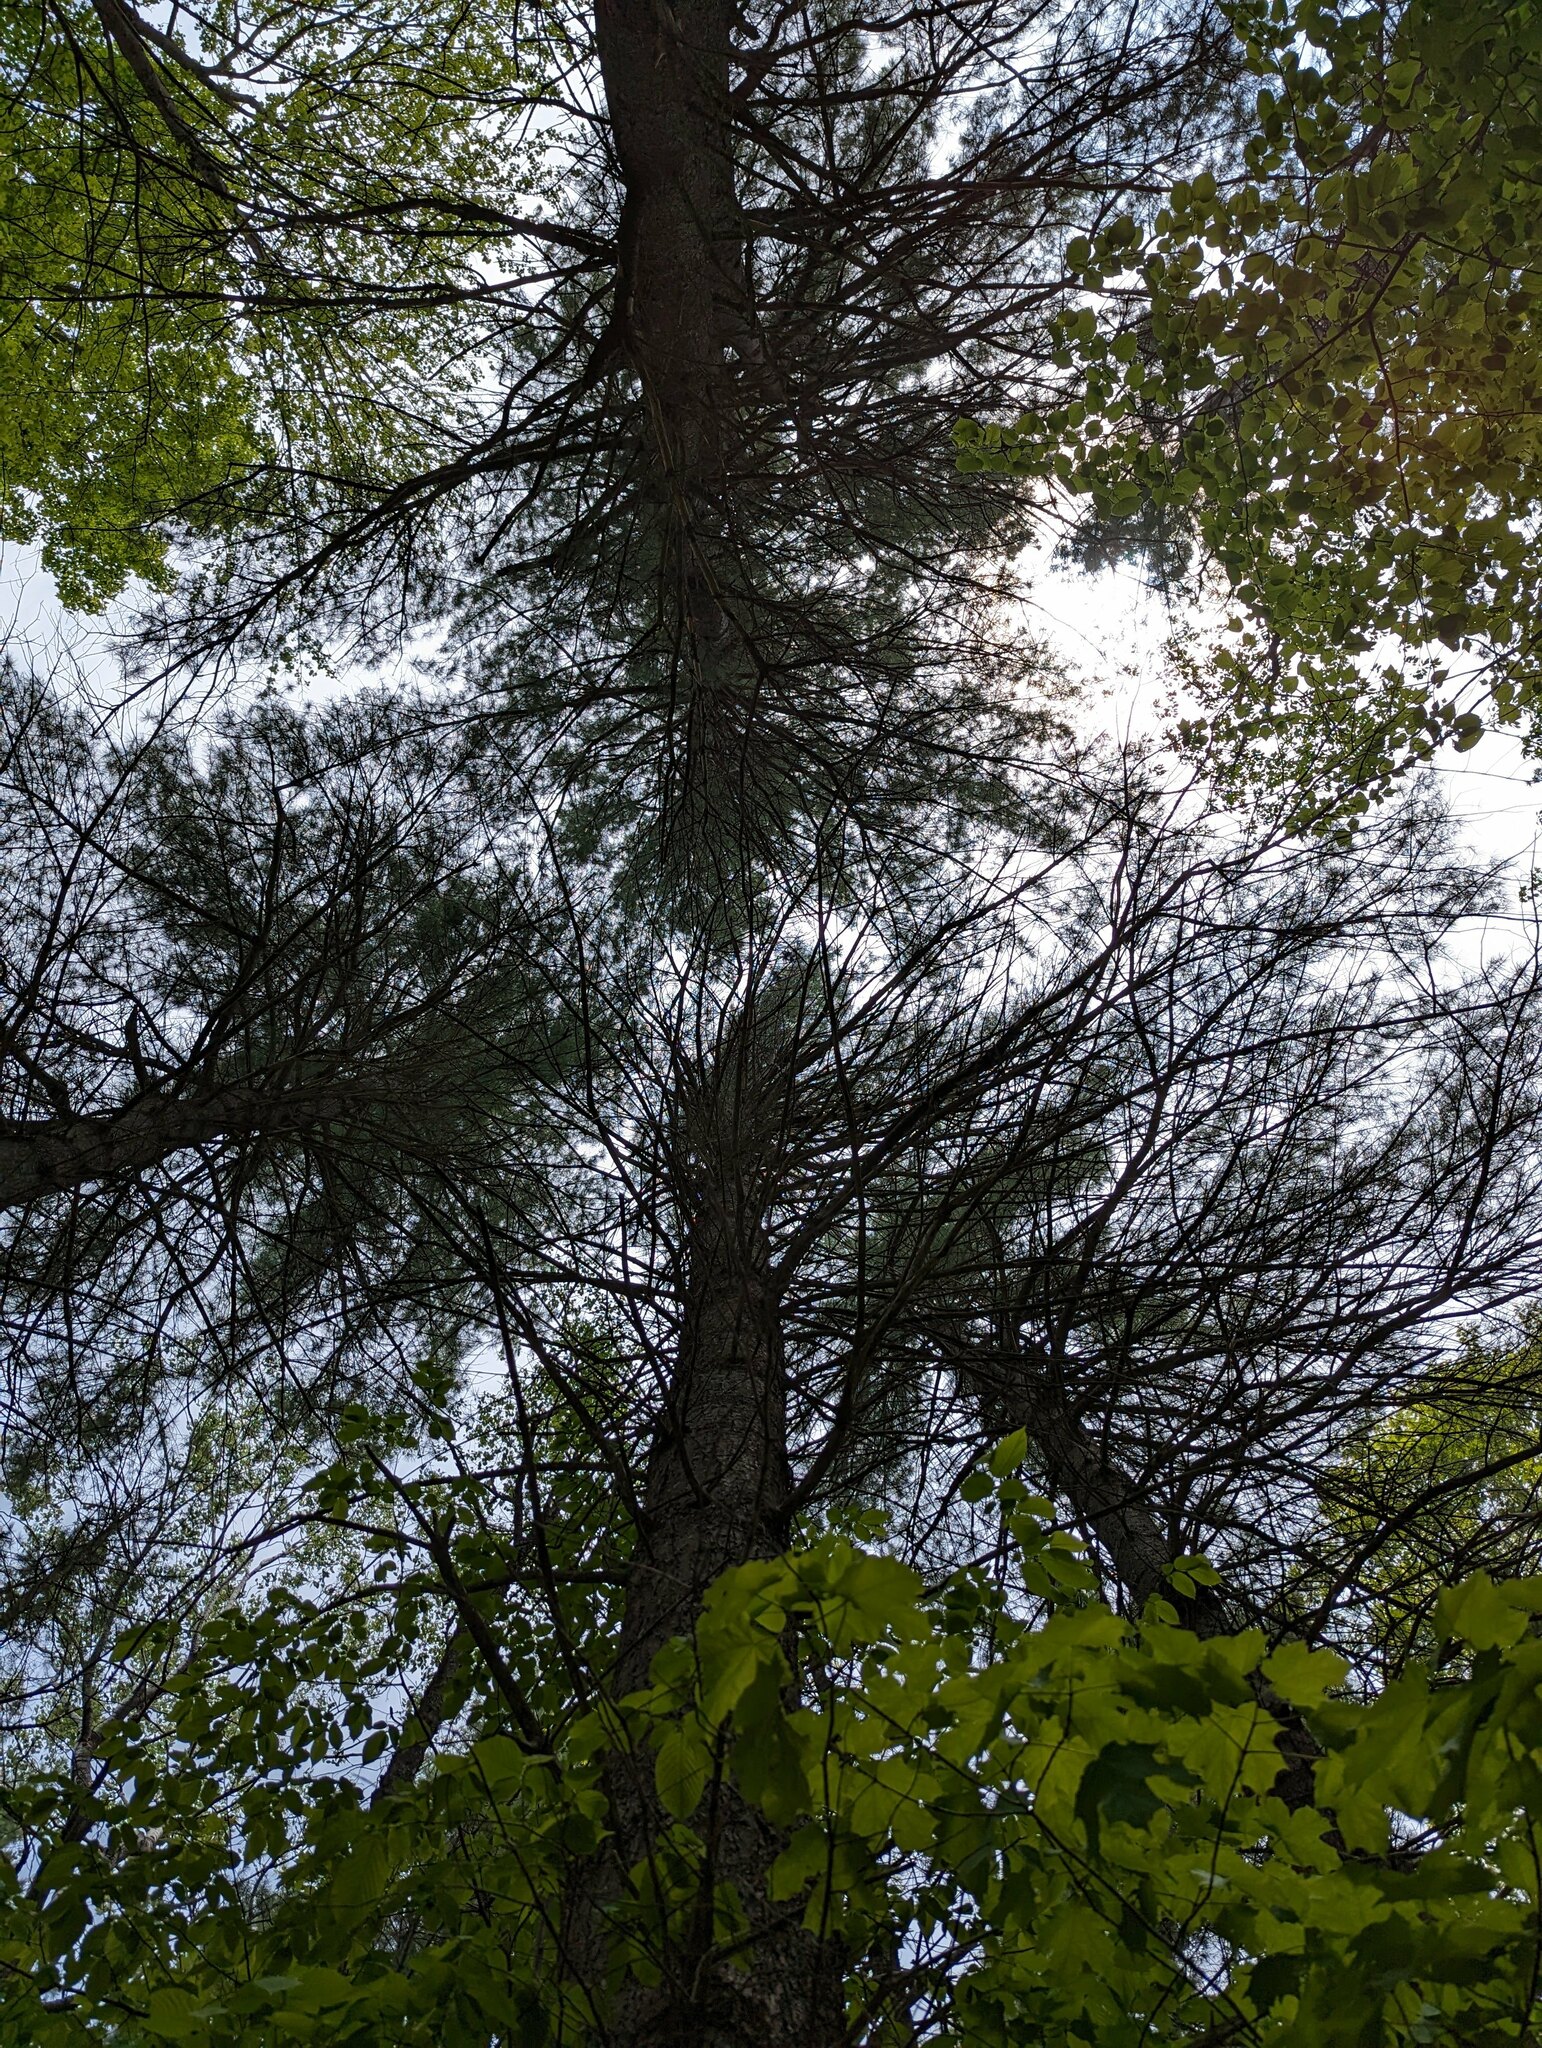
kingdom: Plantae
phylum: Tracheophyta
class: Pinopsida
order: Pinales
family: Pinaceae
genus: Pinus
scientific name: Pinus strobus
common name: Weymouth pine
